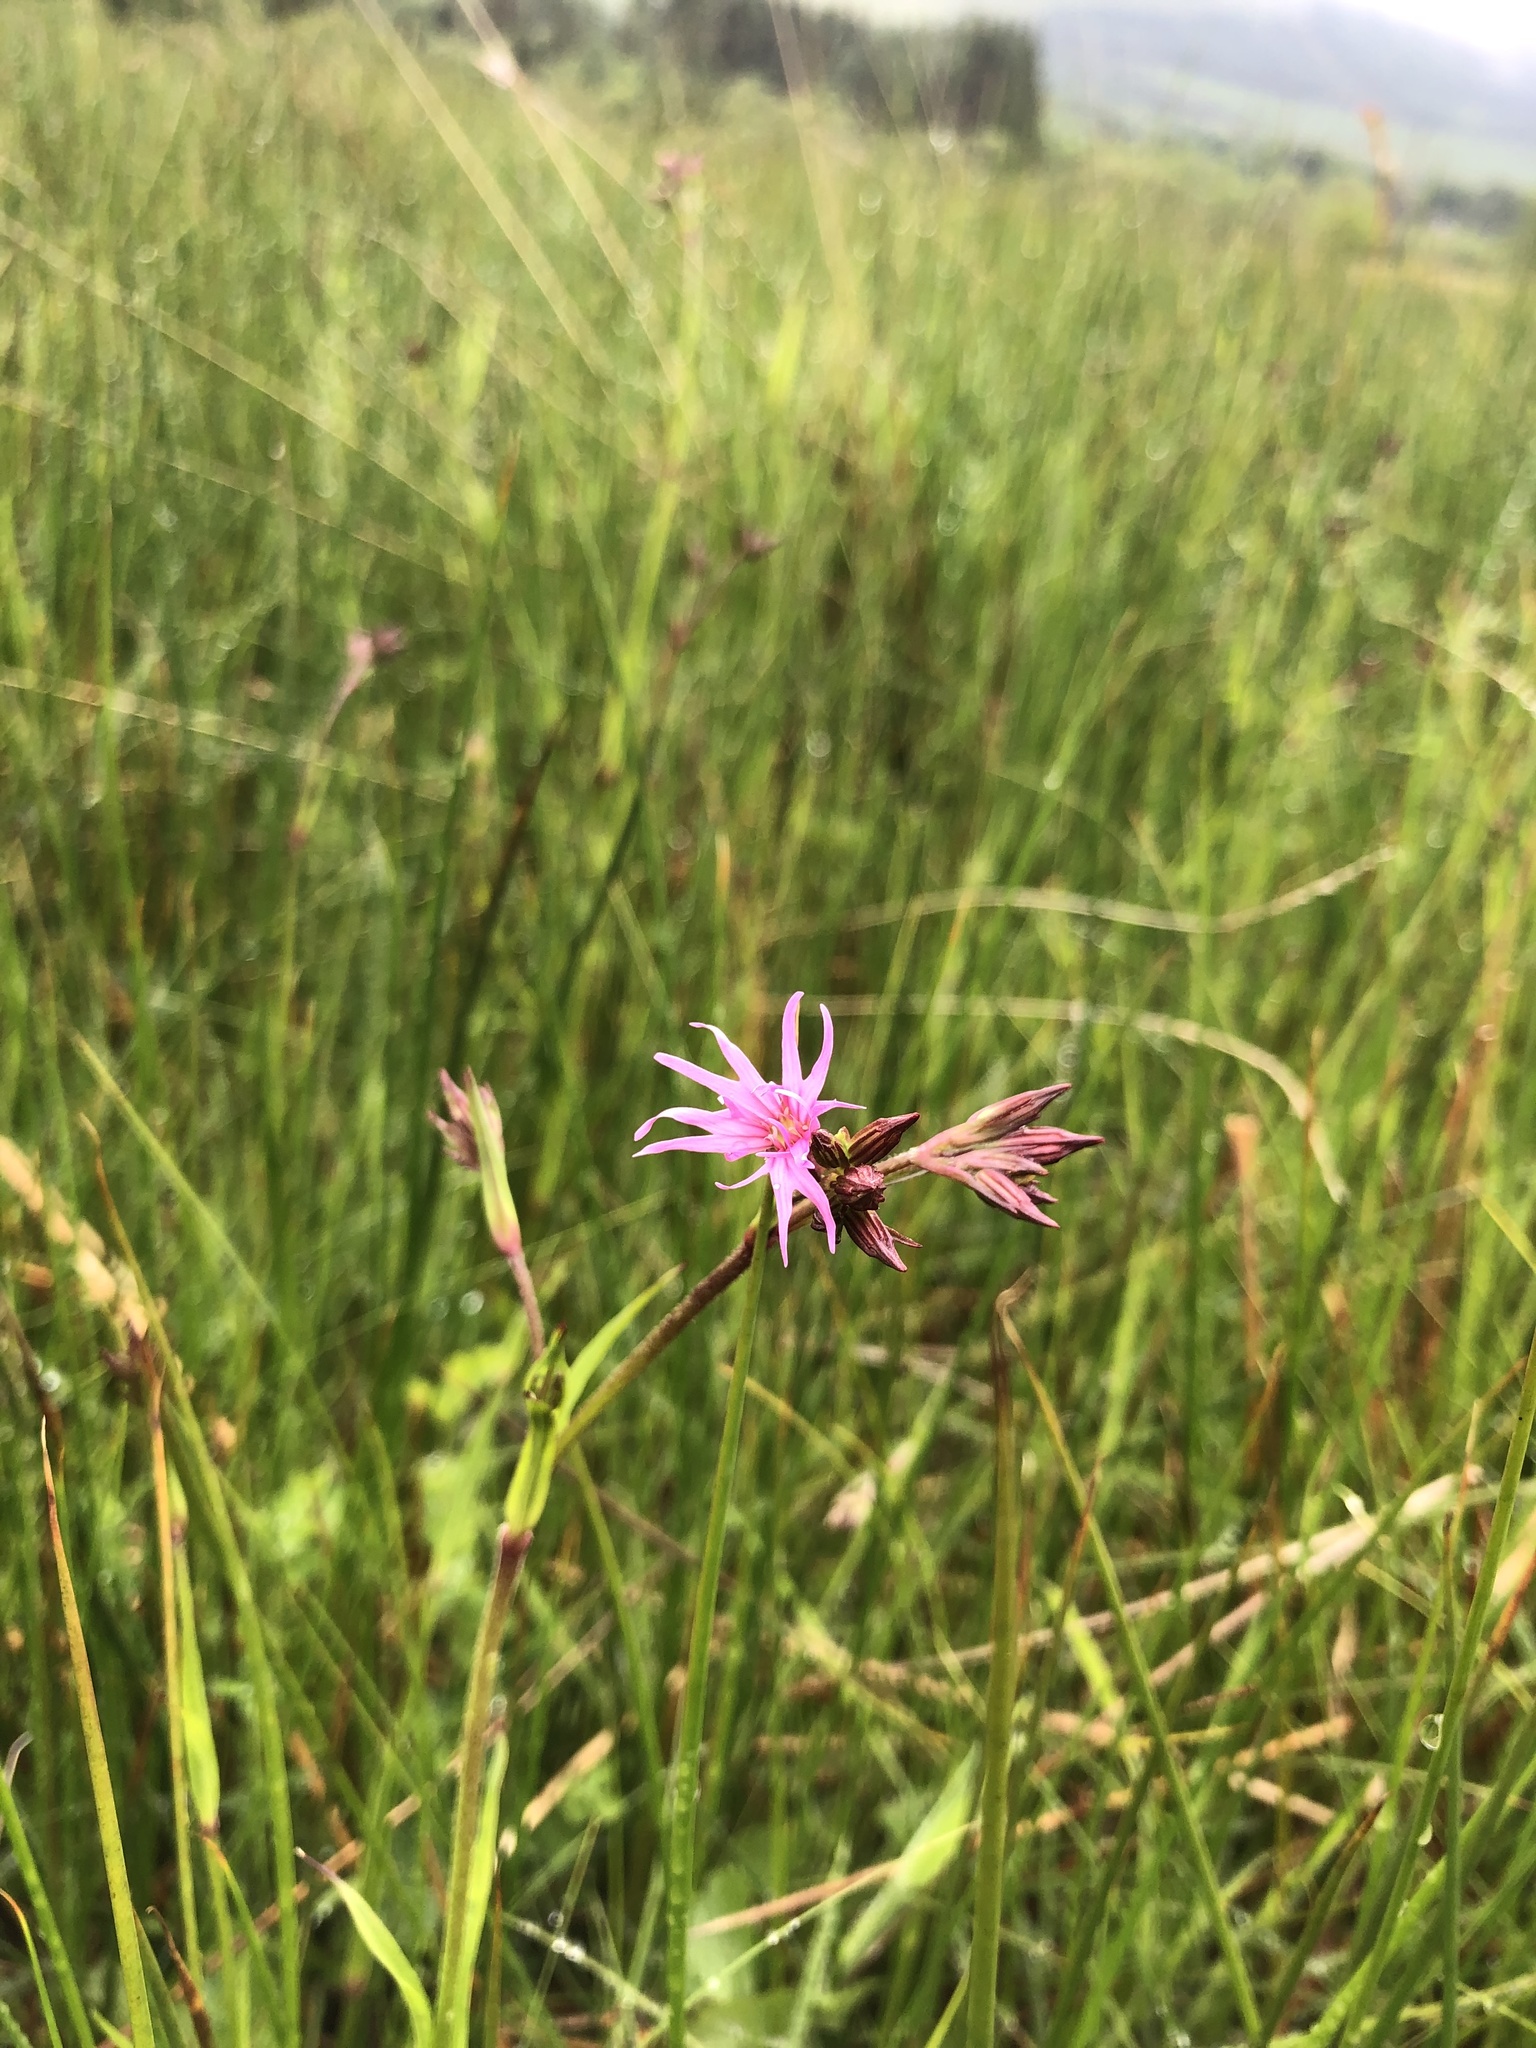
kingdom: Plantae
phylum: Tracheophyta
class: Magnoliopsida
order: Caryophyllales
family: Caryophyllaceae
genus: Silene
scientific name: Silene flos-cuculi
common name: Ragged-robin
